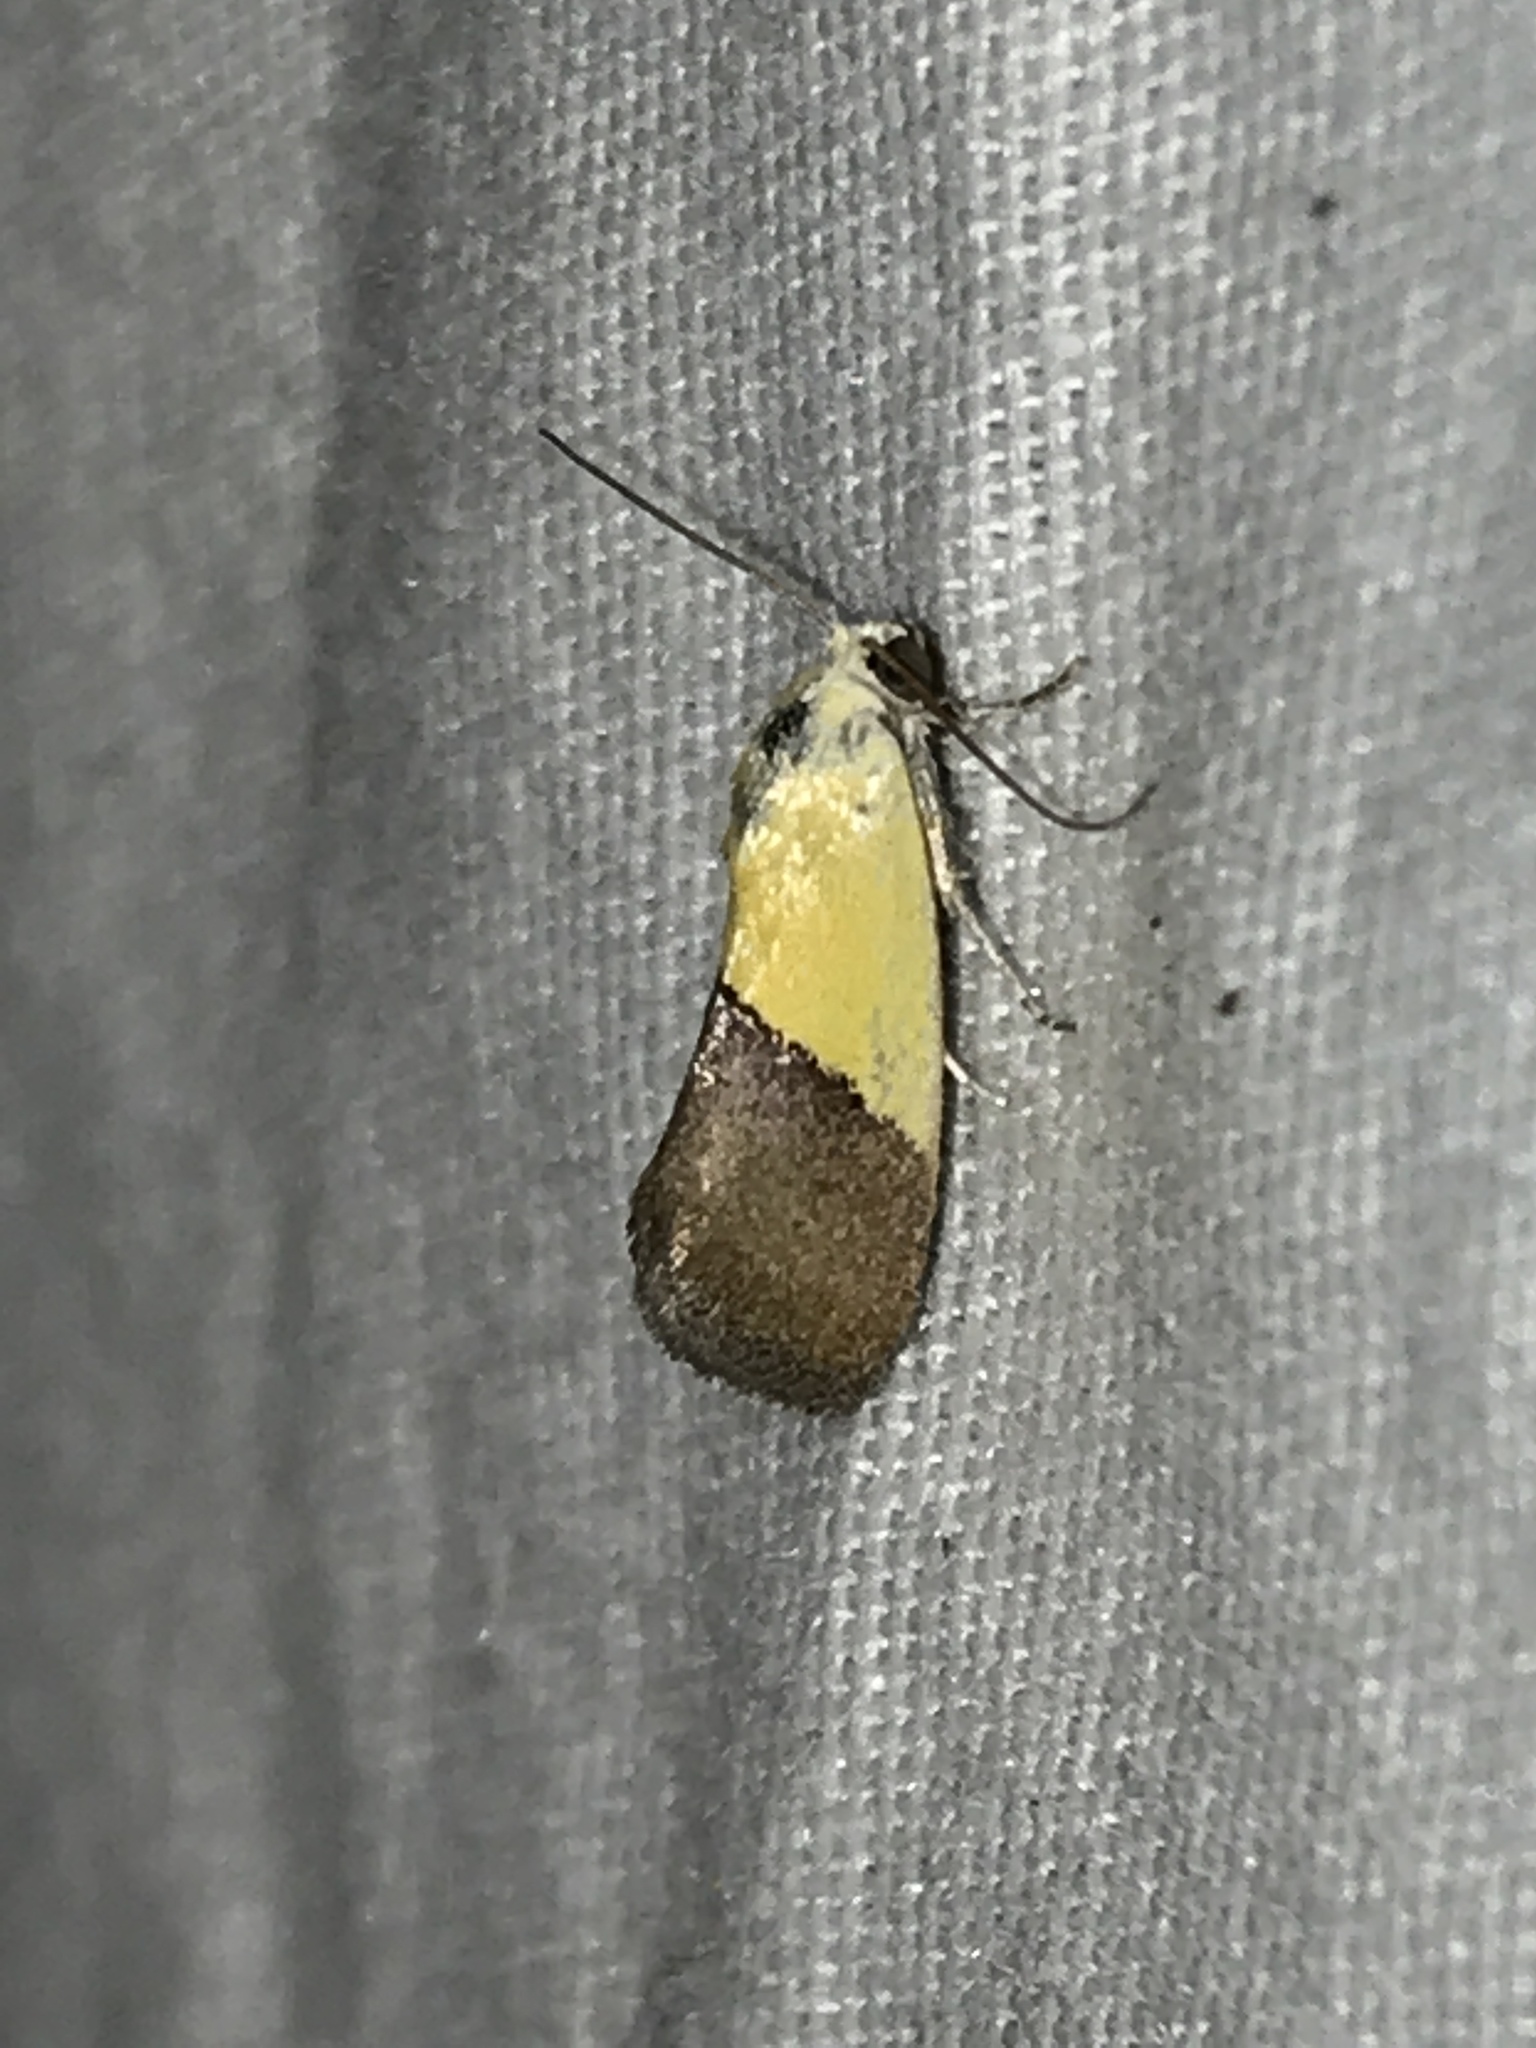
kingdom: Animalia
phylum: Arthropoda
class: Insecta
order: Lepidoptera
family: Noctuidae
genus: Acontia
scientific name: Acontia semiflava
